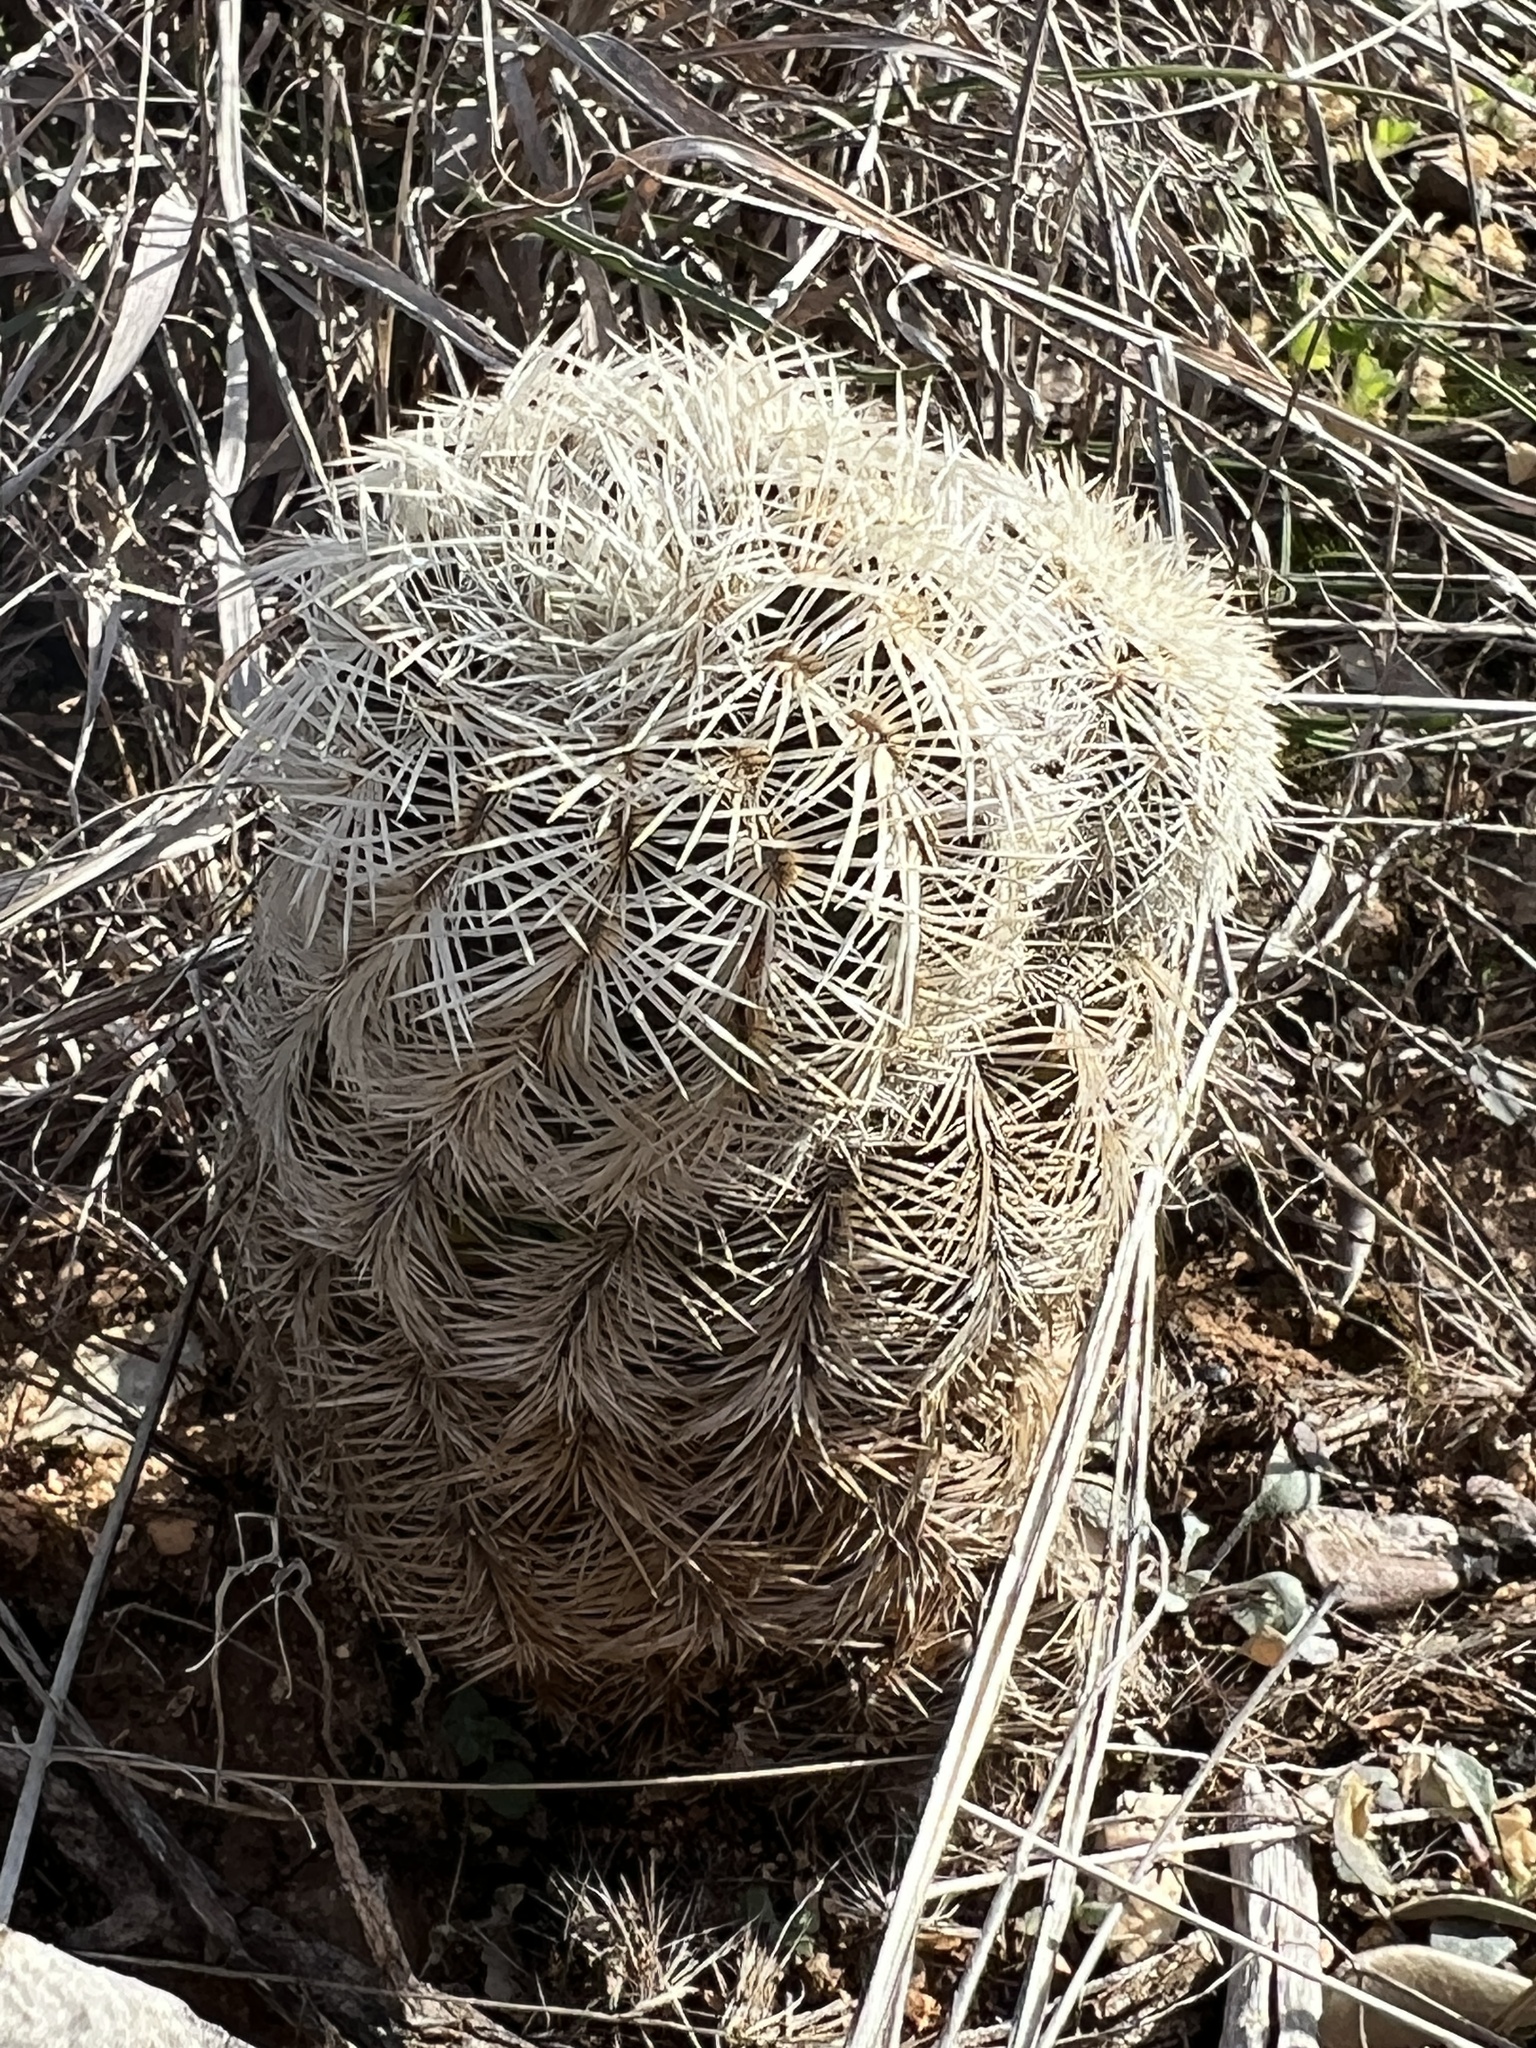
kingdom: Plantae
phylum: Tracheophyta
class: Magnoliopsida
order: Caryophyllales
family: Cactaceae
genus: Echinocereus
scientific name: Echinocereus reichenbachii
